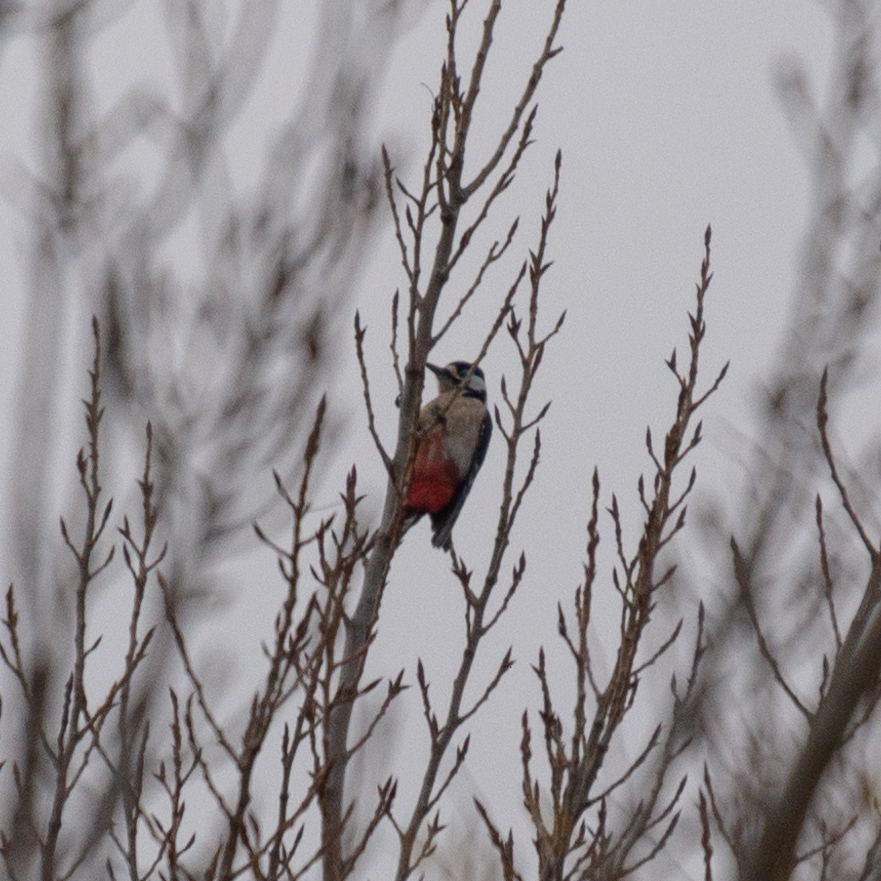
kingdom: Animalia
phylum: Chordata
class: Aves
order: Piciformes
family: Picidae
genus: Dendrocopos
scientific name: Dendrocopos major
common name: Great spotted woodpecker
